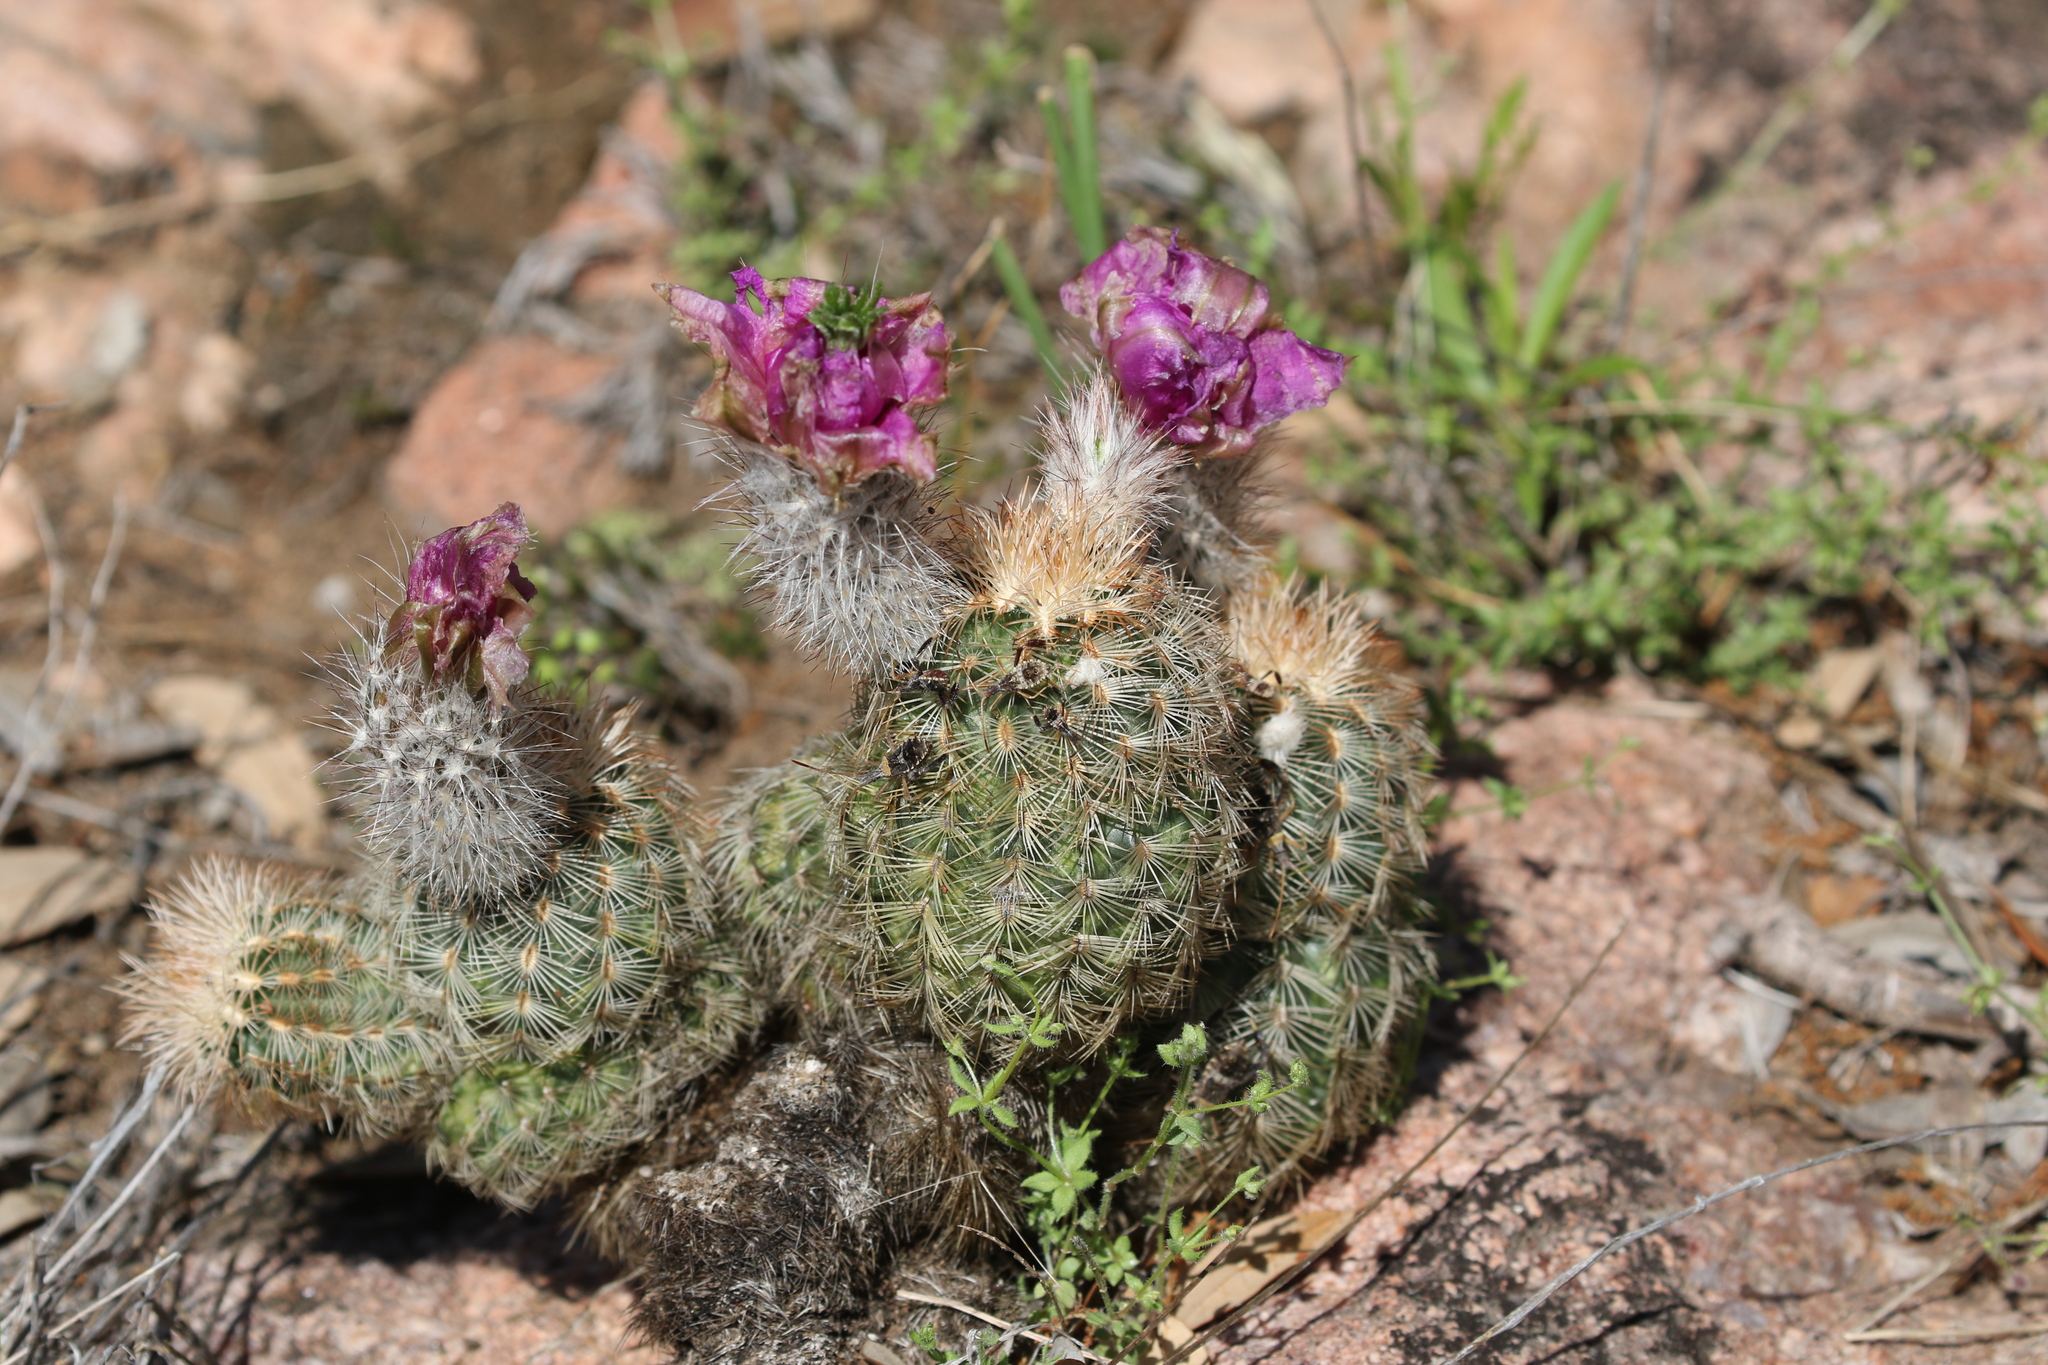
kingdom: Plantae
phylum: Tracheophyta
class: Magnoliopsida
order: Caryophyllales
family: Cactaceae
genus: Echinocereus
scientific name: Echinocereus reichenbachii
